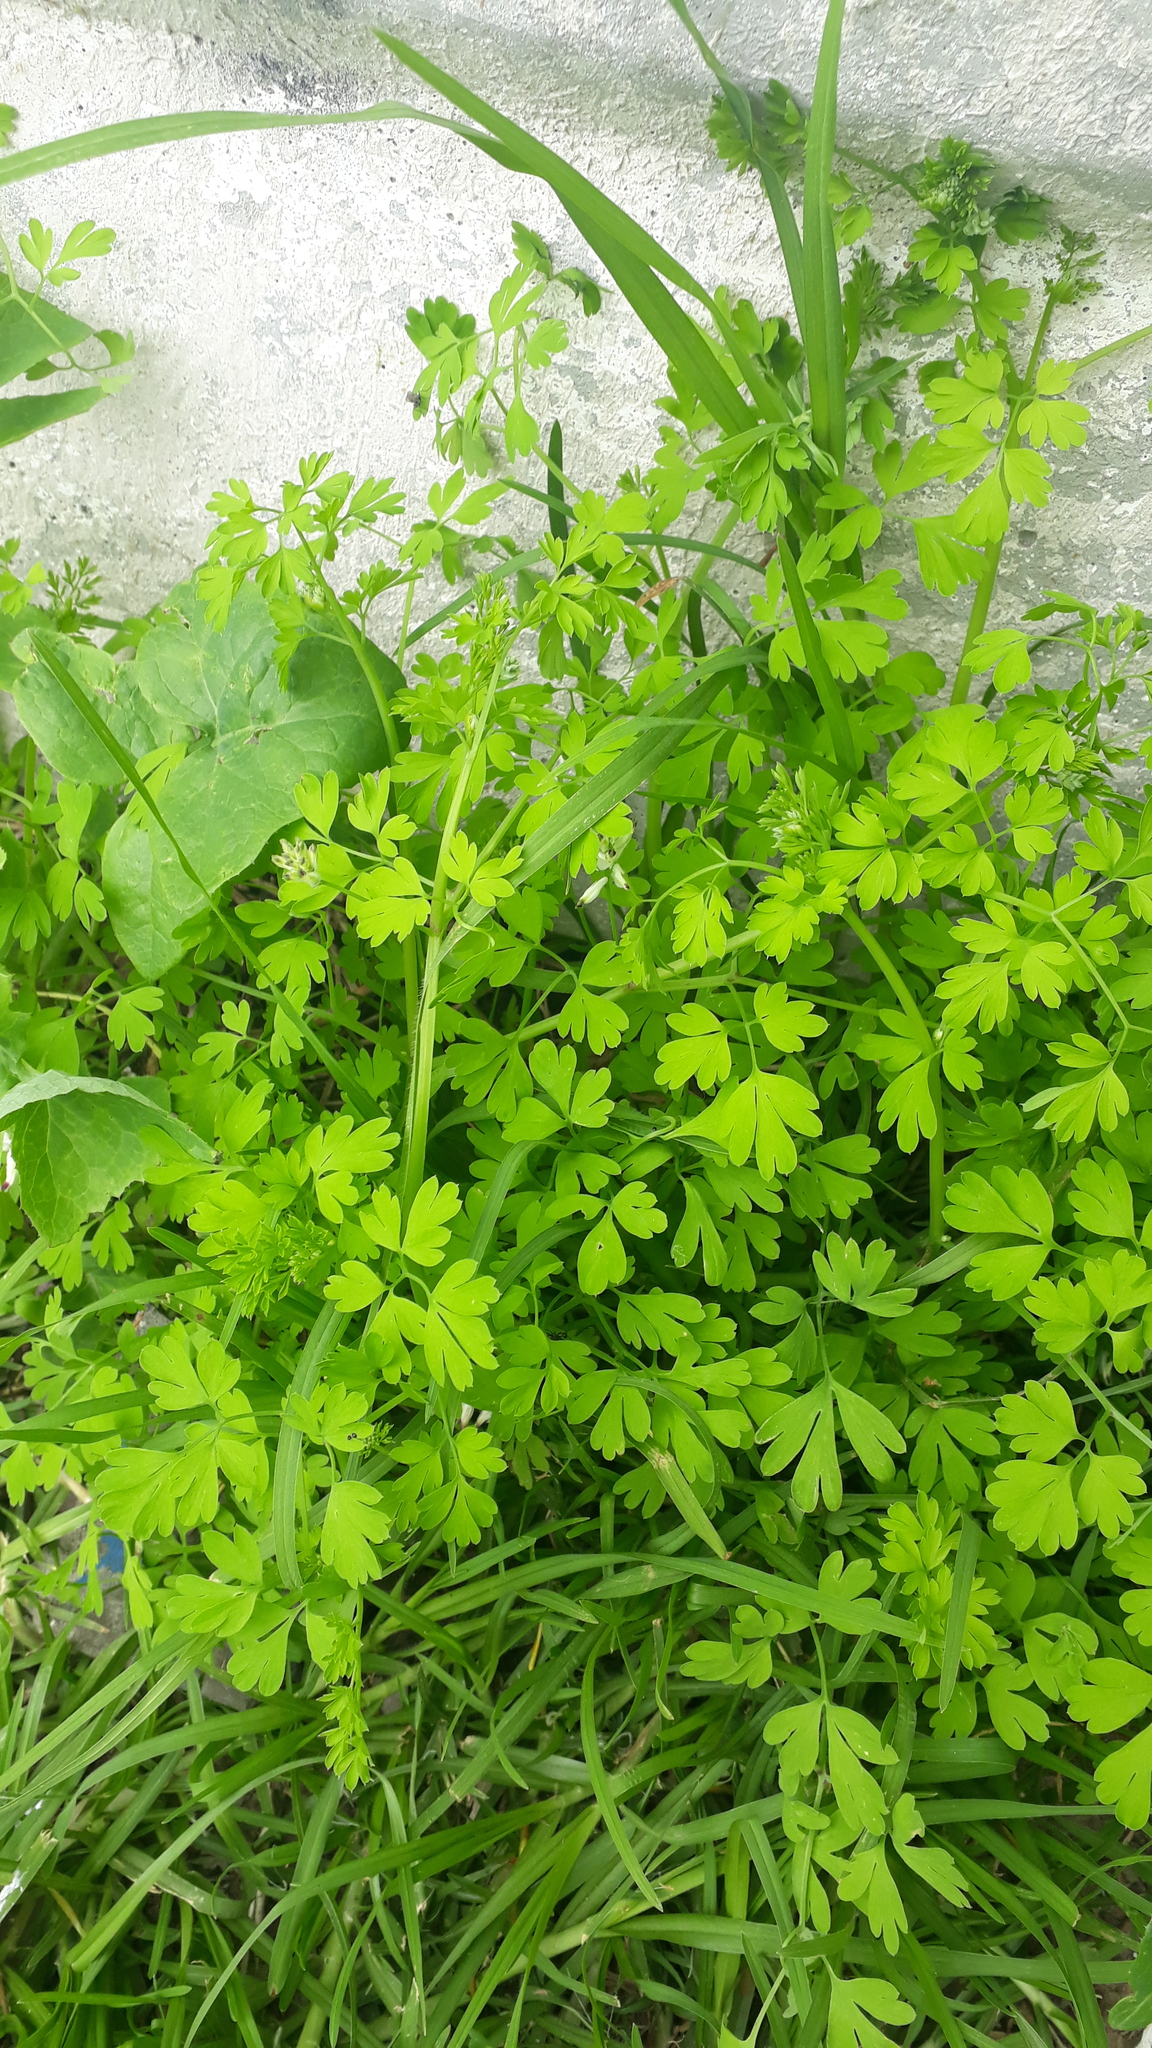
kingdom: Plantae
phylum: Tracheophyta
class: Magnoliopsida
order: Ranunculales
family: Papaveraceae
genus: Fumaria
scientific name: Fumaria capreolata
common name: White ramping-fumitory
